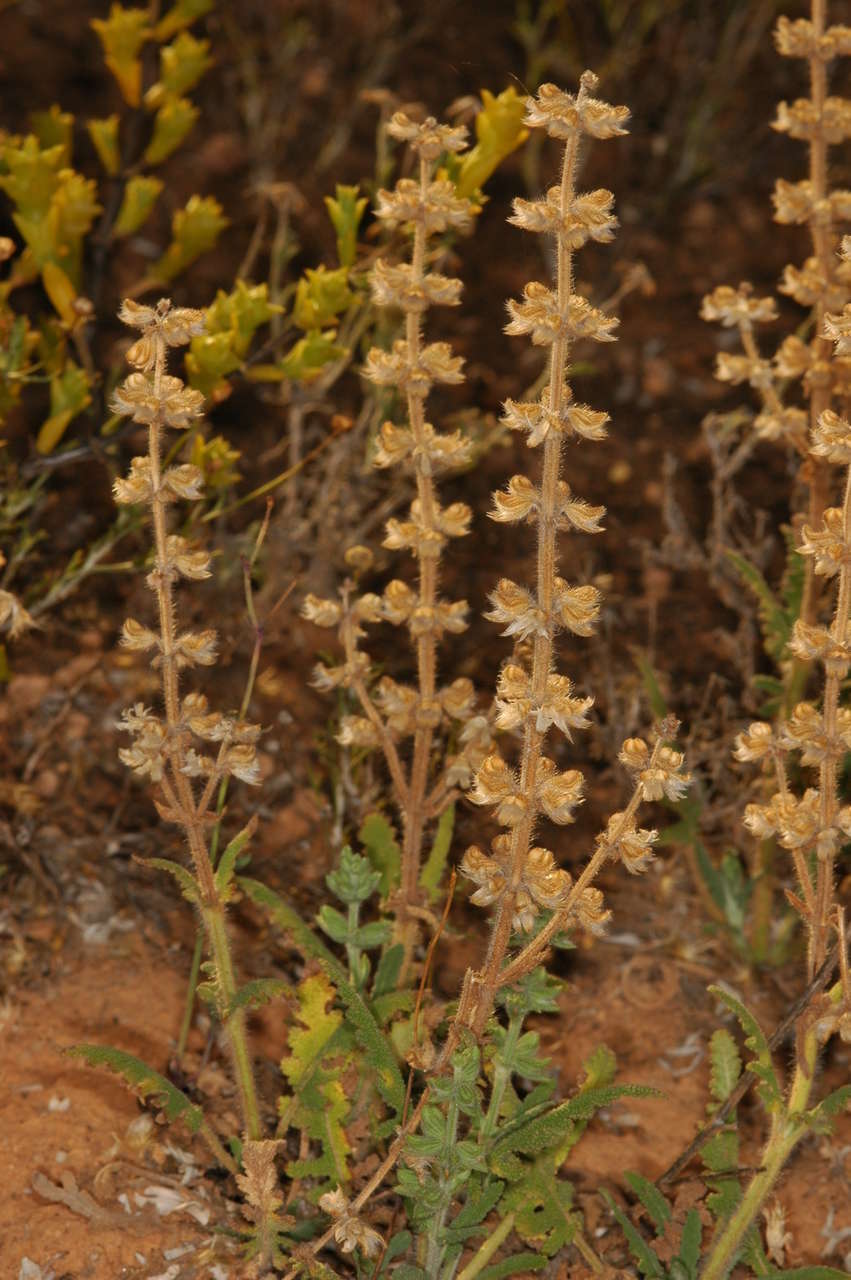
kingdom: Plantae
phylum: Tracheophyta
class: Magnoliopsida
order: Lamiales
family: Lamiaceae
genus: Salvia
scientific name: Salvia verbenaca
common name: Wild clary
